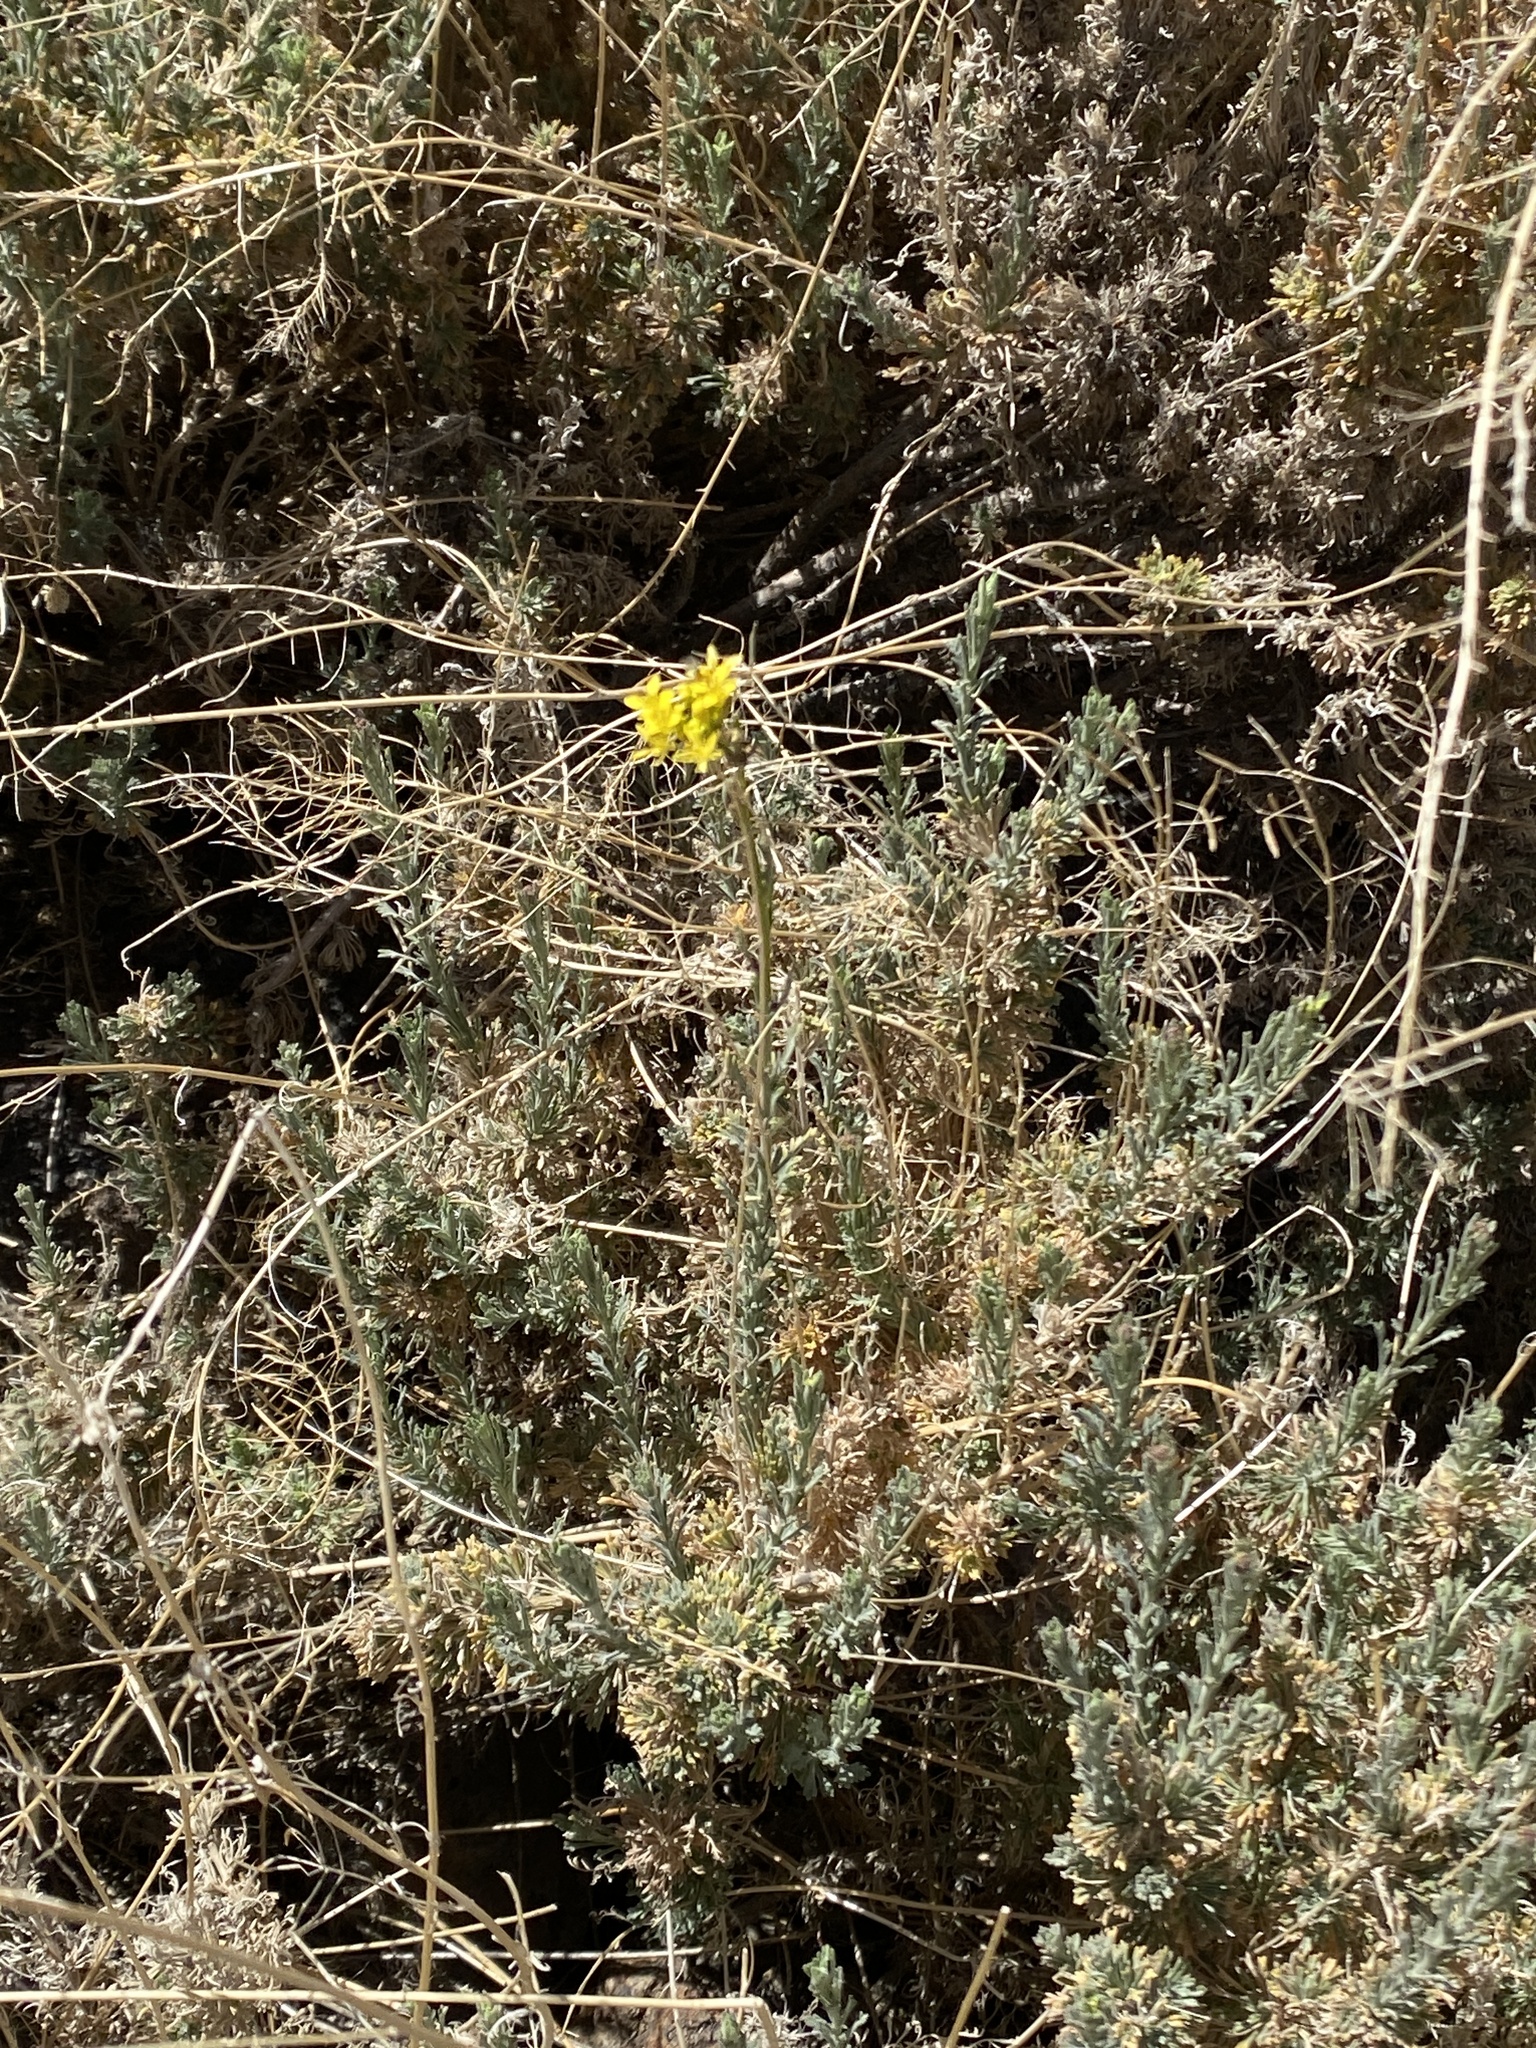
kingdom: Plantae
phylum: Tracheophyta
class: Magnoliopsida
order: Brassicales
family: Brassicaceae
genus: Descurainia
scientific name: Descurainia bourgaeana
